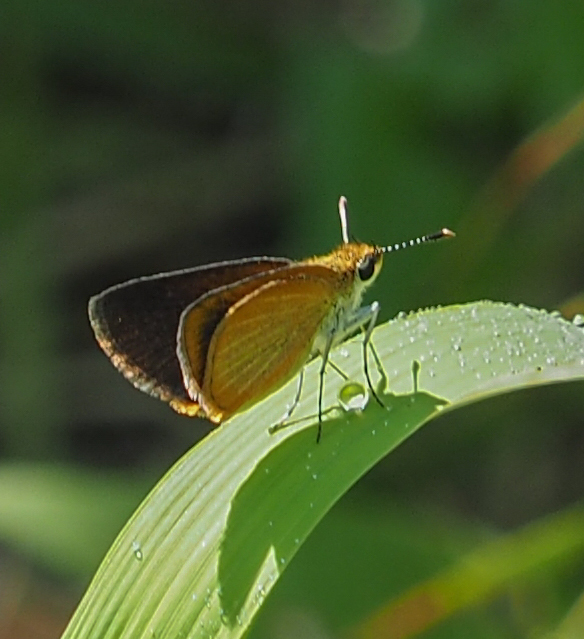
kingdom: Animalia
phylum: Arthropoda
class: Insecta
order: Lepidoptera
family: Hesperiidae
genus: Ancyloxypha
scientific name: Ancyloxypha numitor
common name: Least skipper
